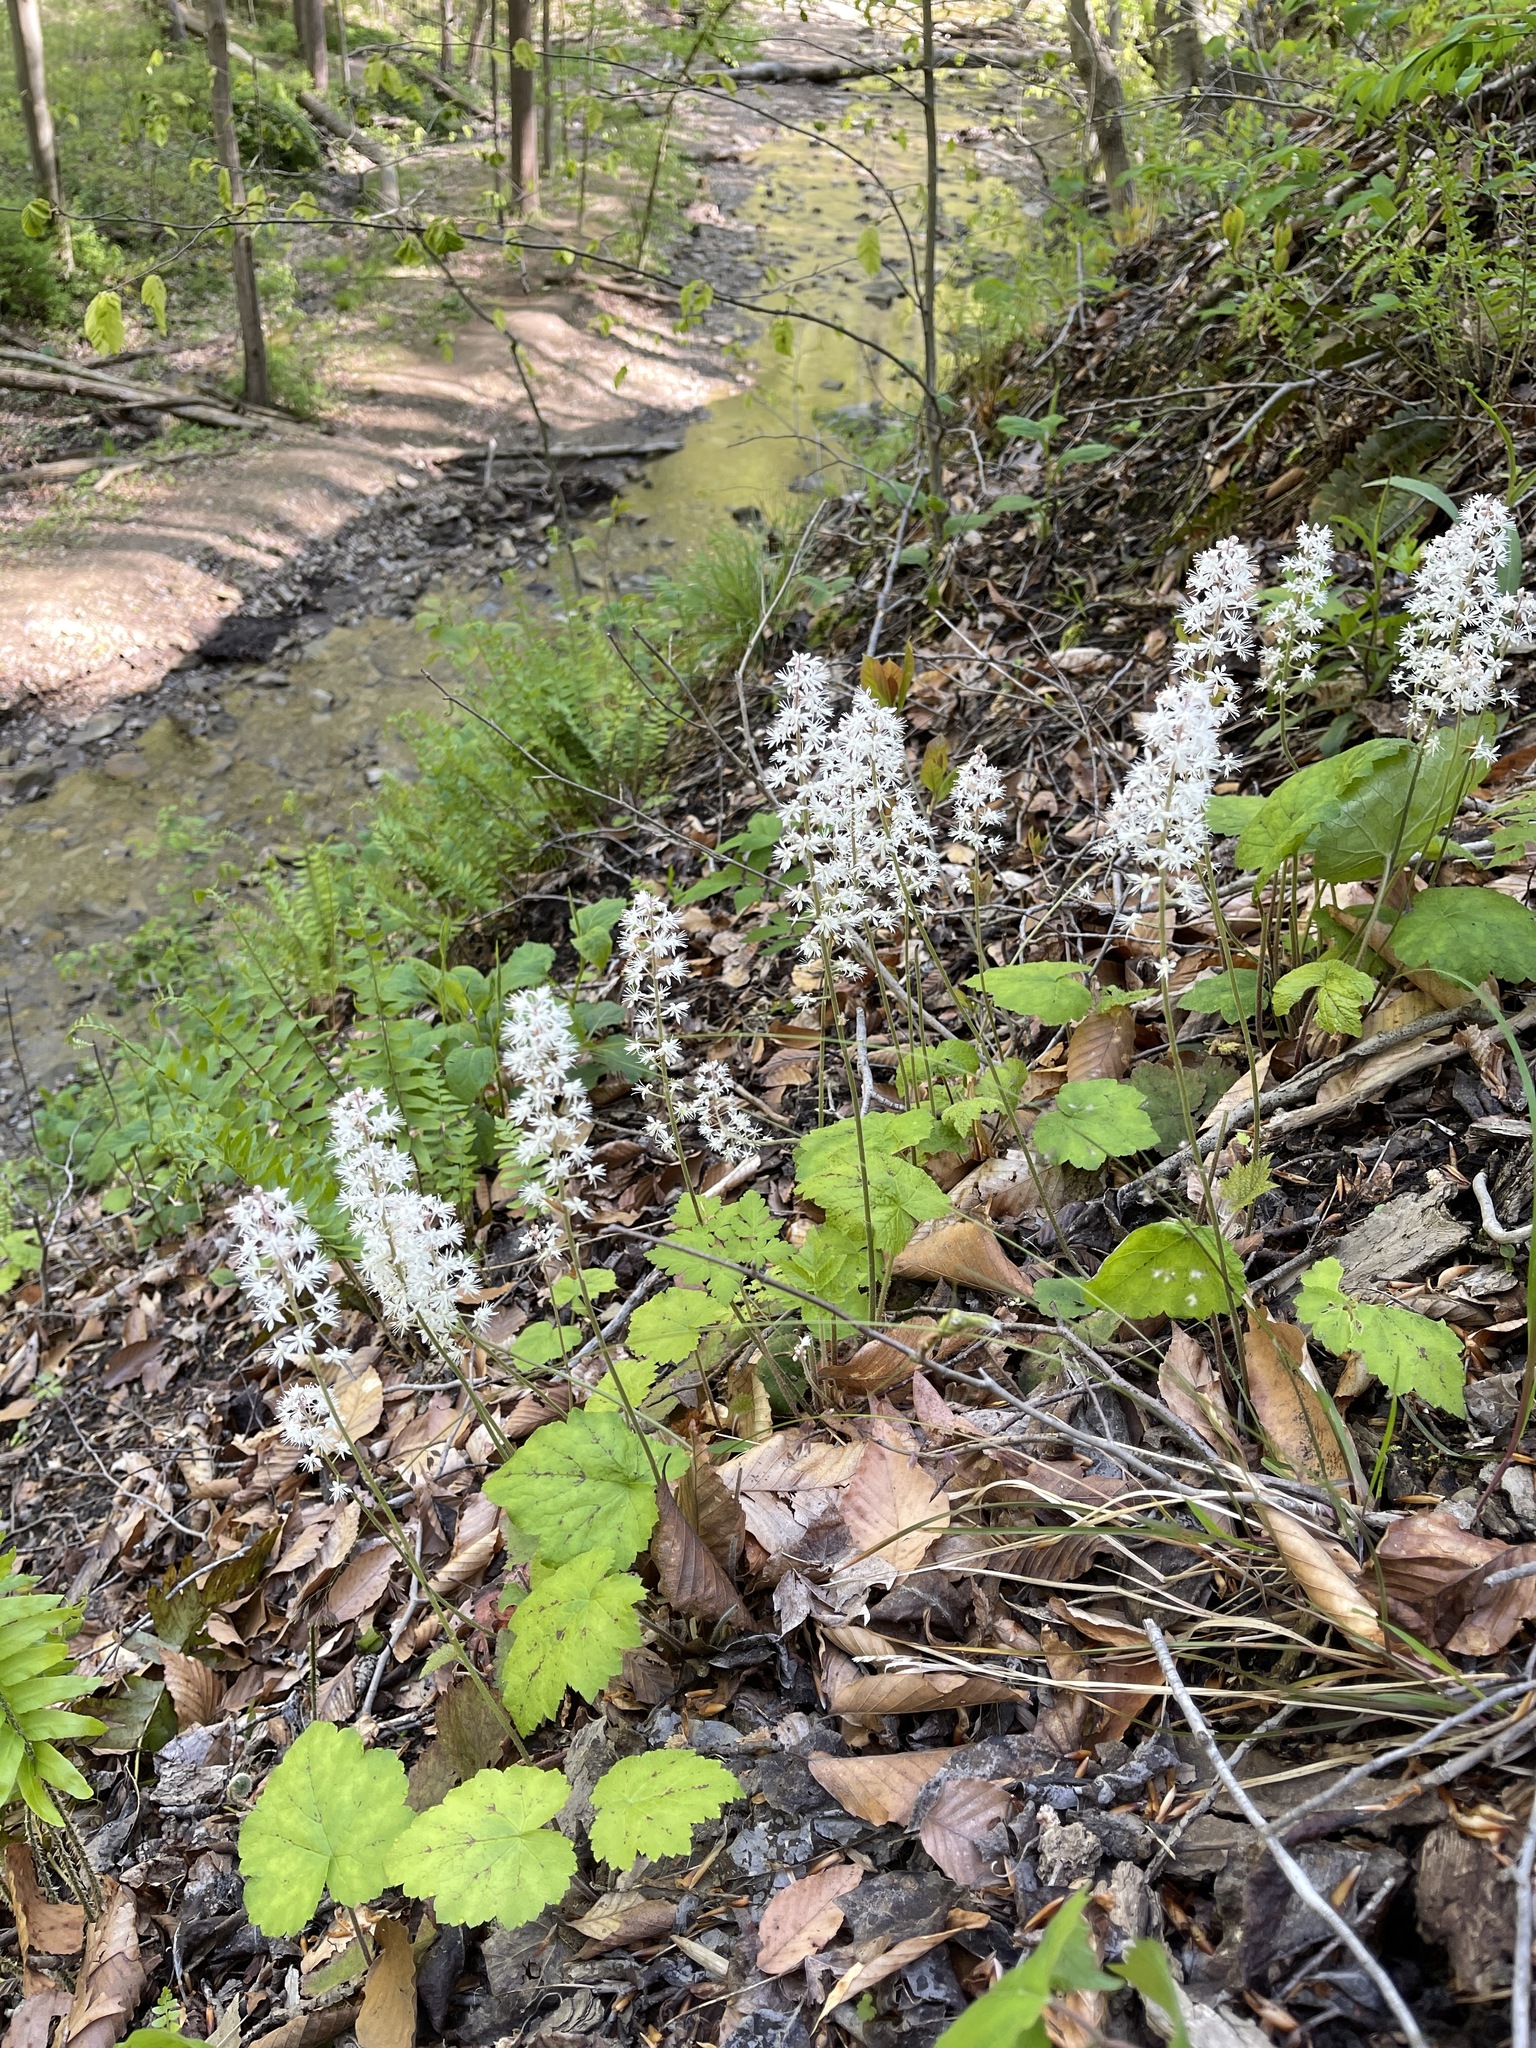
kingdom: Plantae
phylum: Tracheophyta
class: Magnoliopsida
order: Saxifragales
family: Saxifragaceae
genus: Tiarella
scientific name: Tiarella stolonifera
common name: Stoloniferous foamflower
